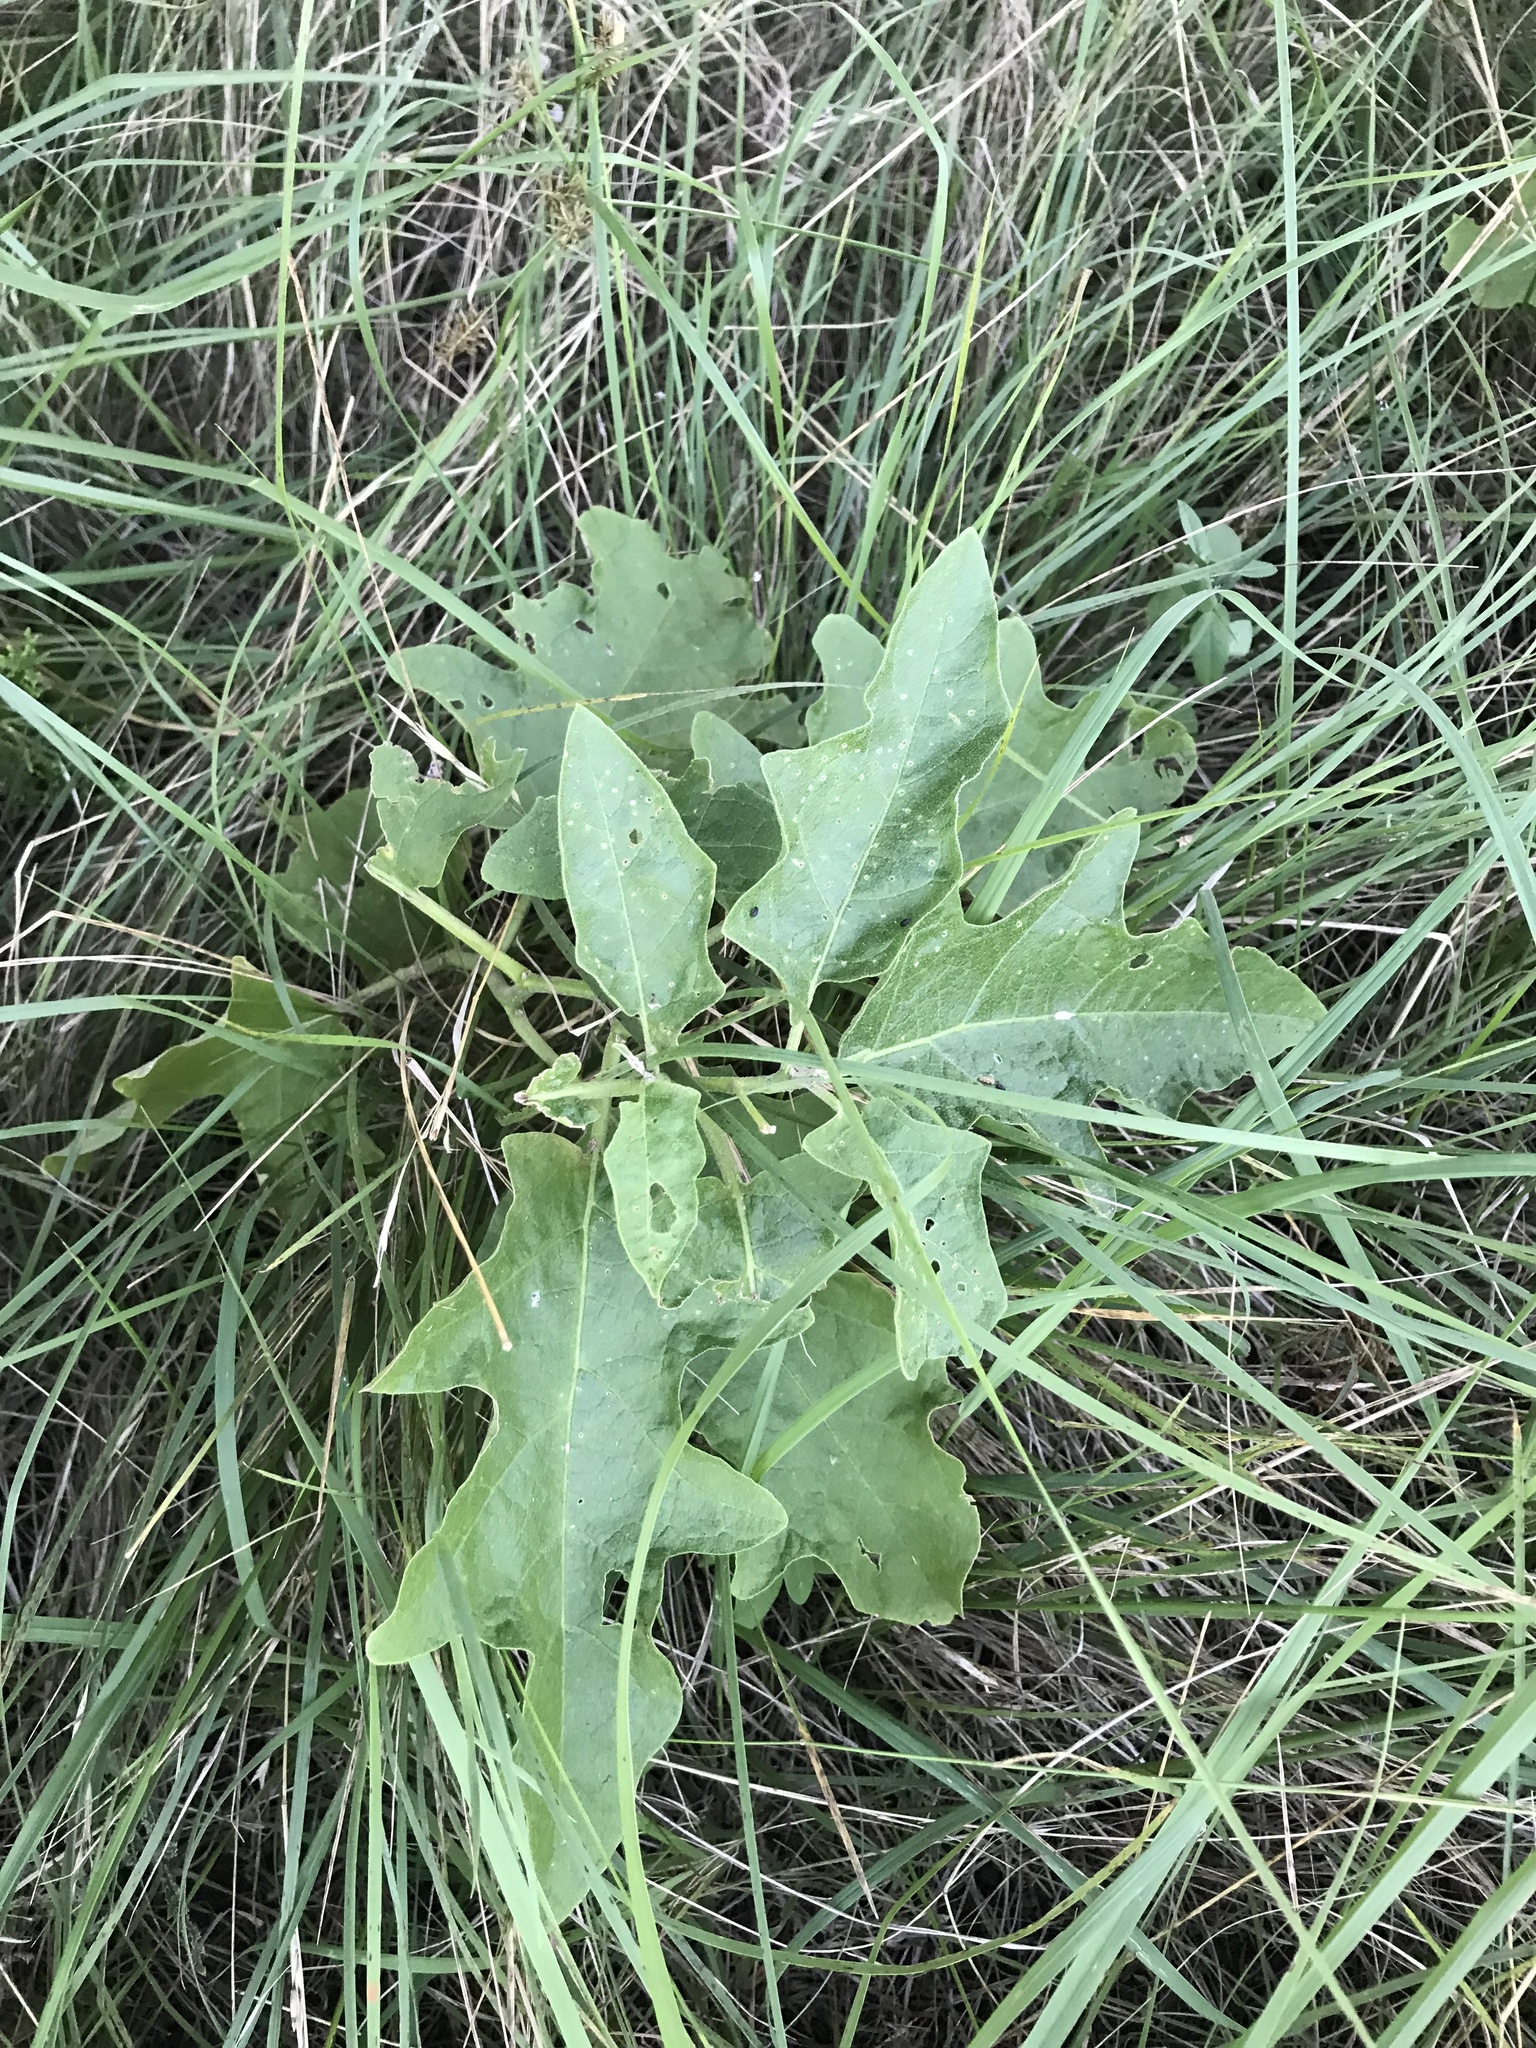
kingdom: Plantae
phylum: Tracheophyta
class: Magnoliopsida
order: Solanales
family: Solanaceae
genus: Solanum
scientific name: Solanum dimidiatum
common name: Carolina horse-nettle
